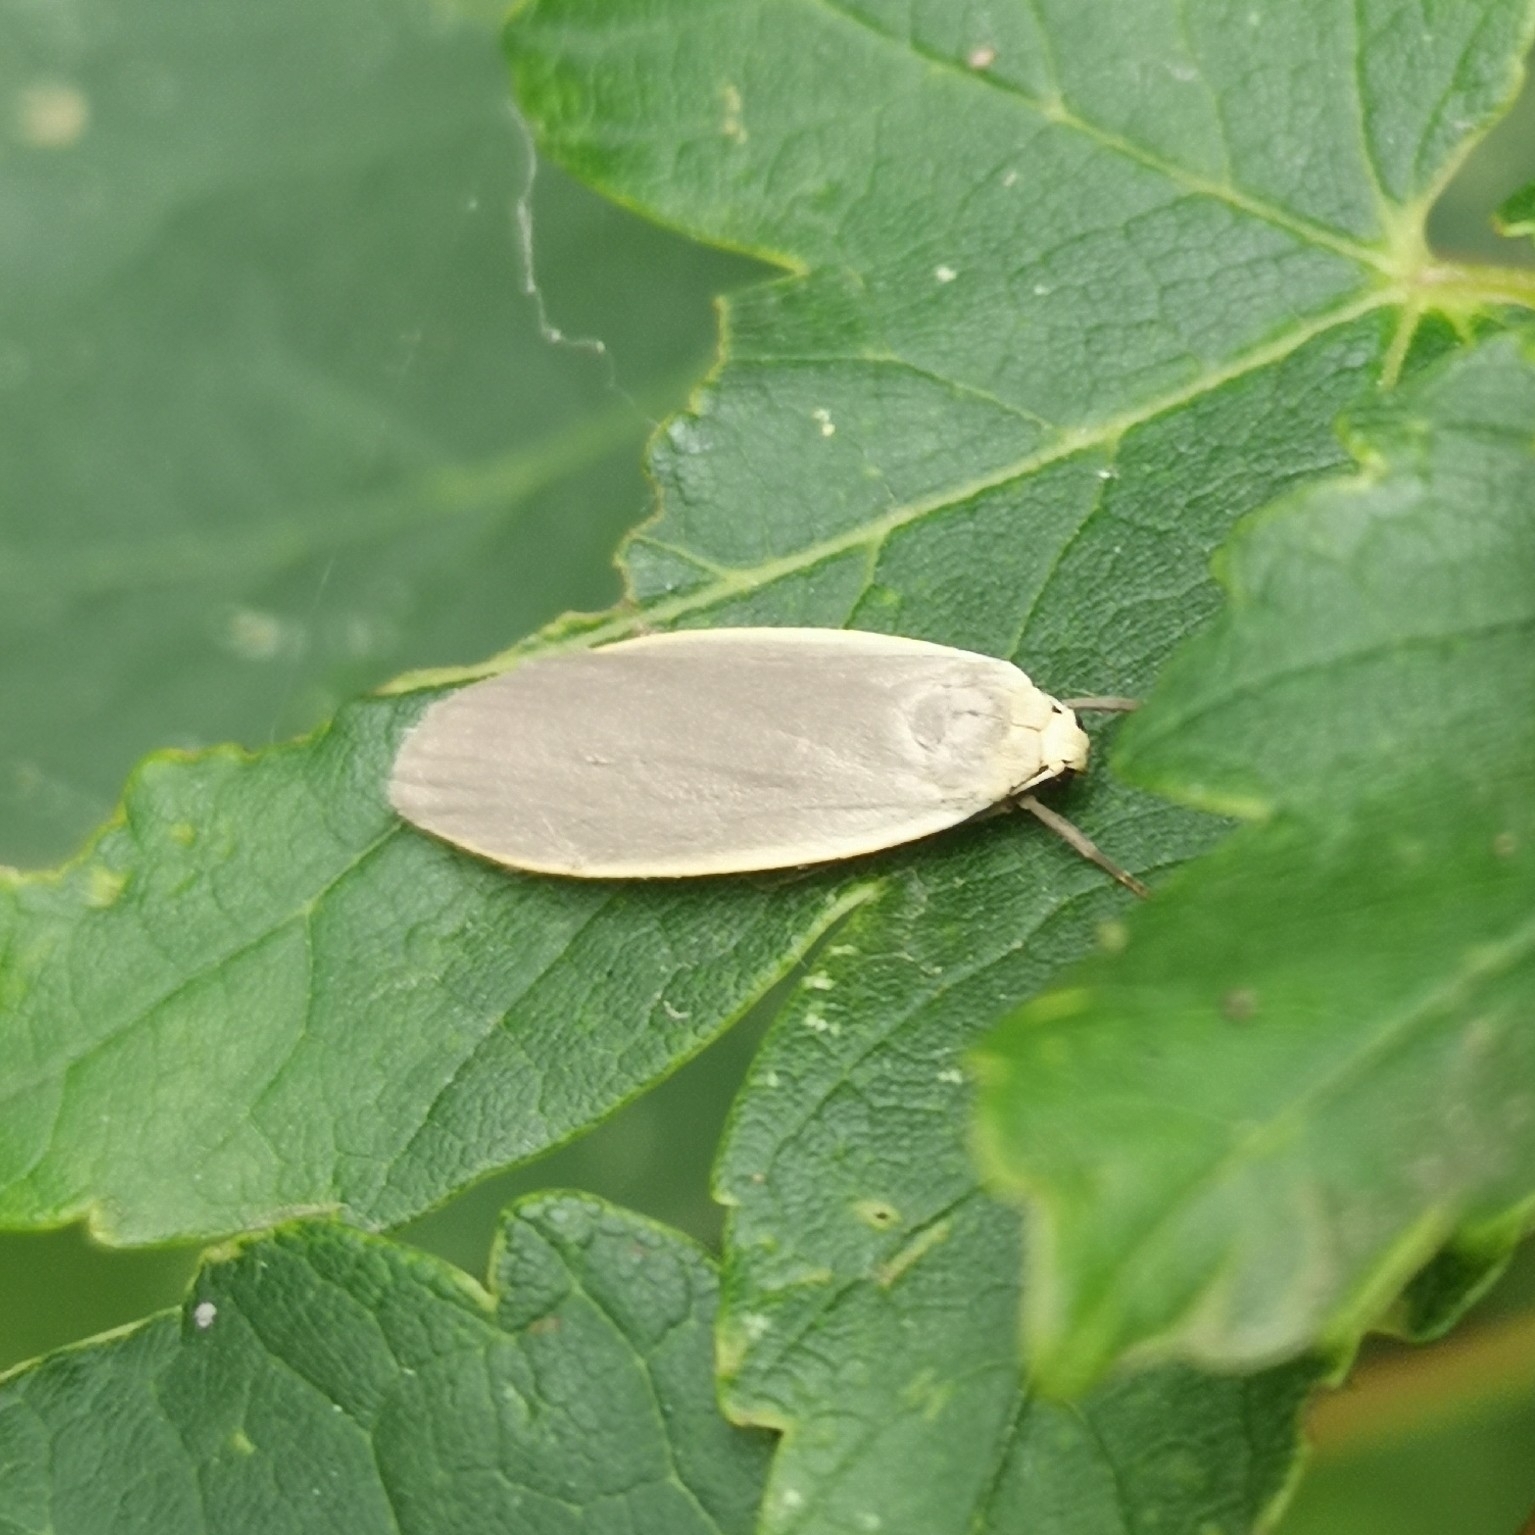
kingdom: Animalia
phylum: Arthropoda
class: Insecta
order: Lepidoptera
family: Erebidae
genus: Collita
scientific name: Collita griseola
